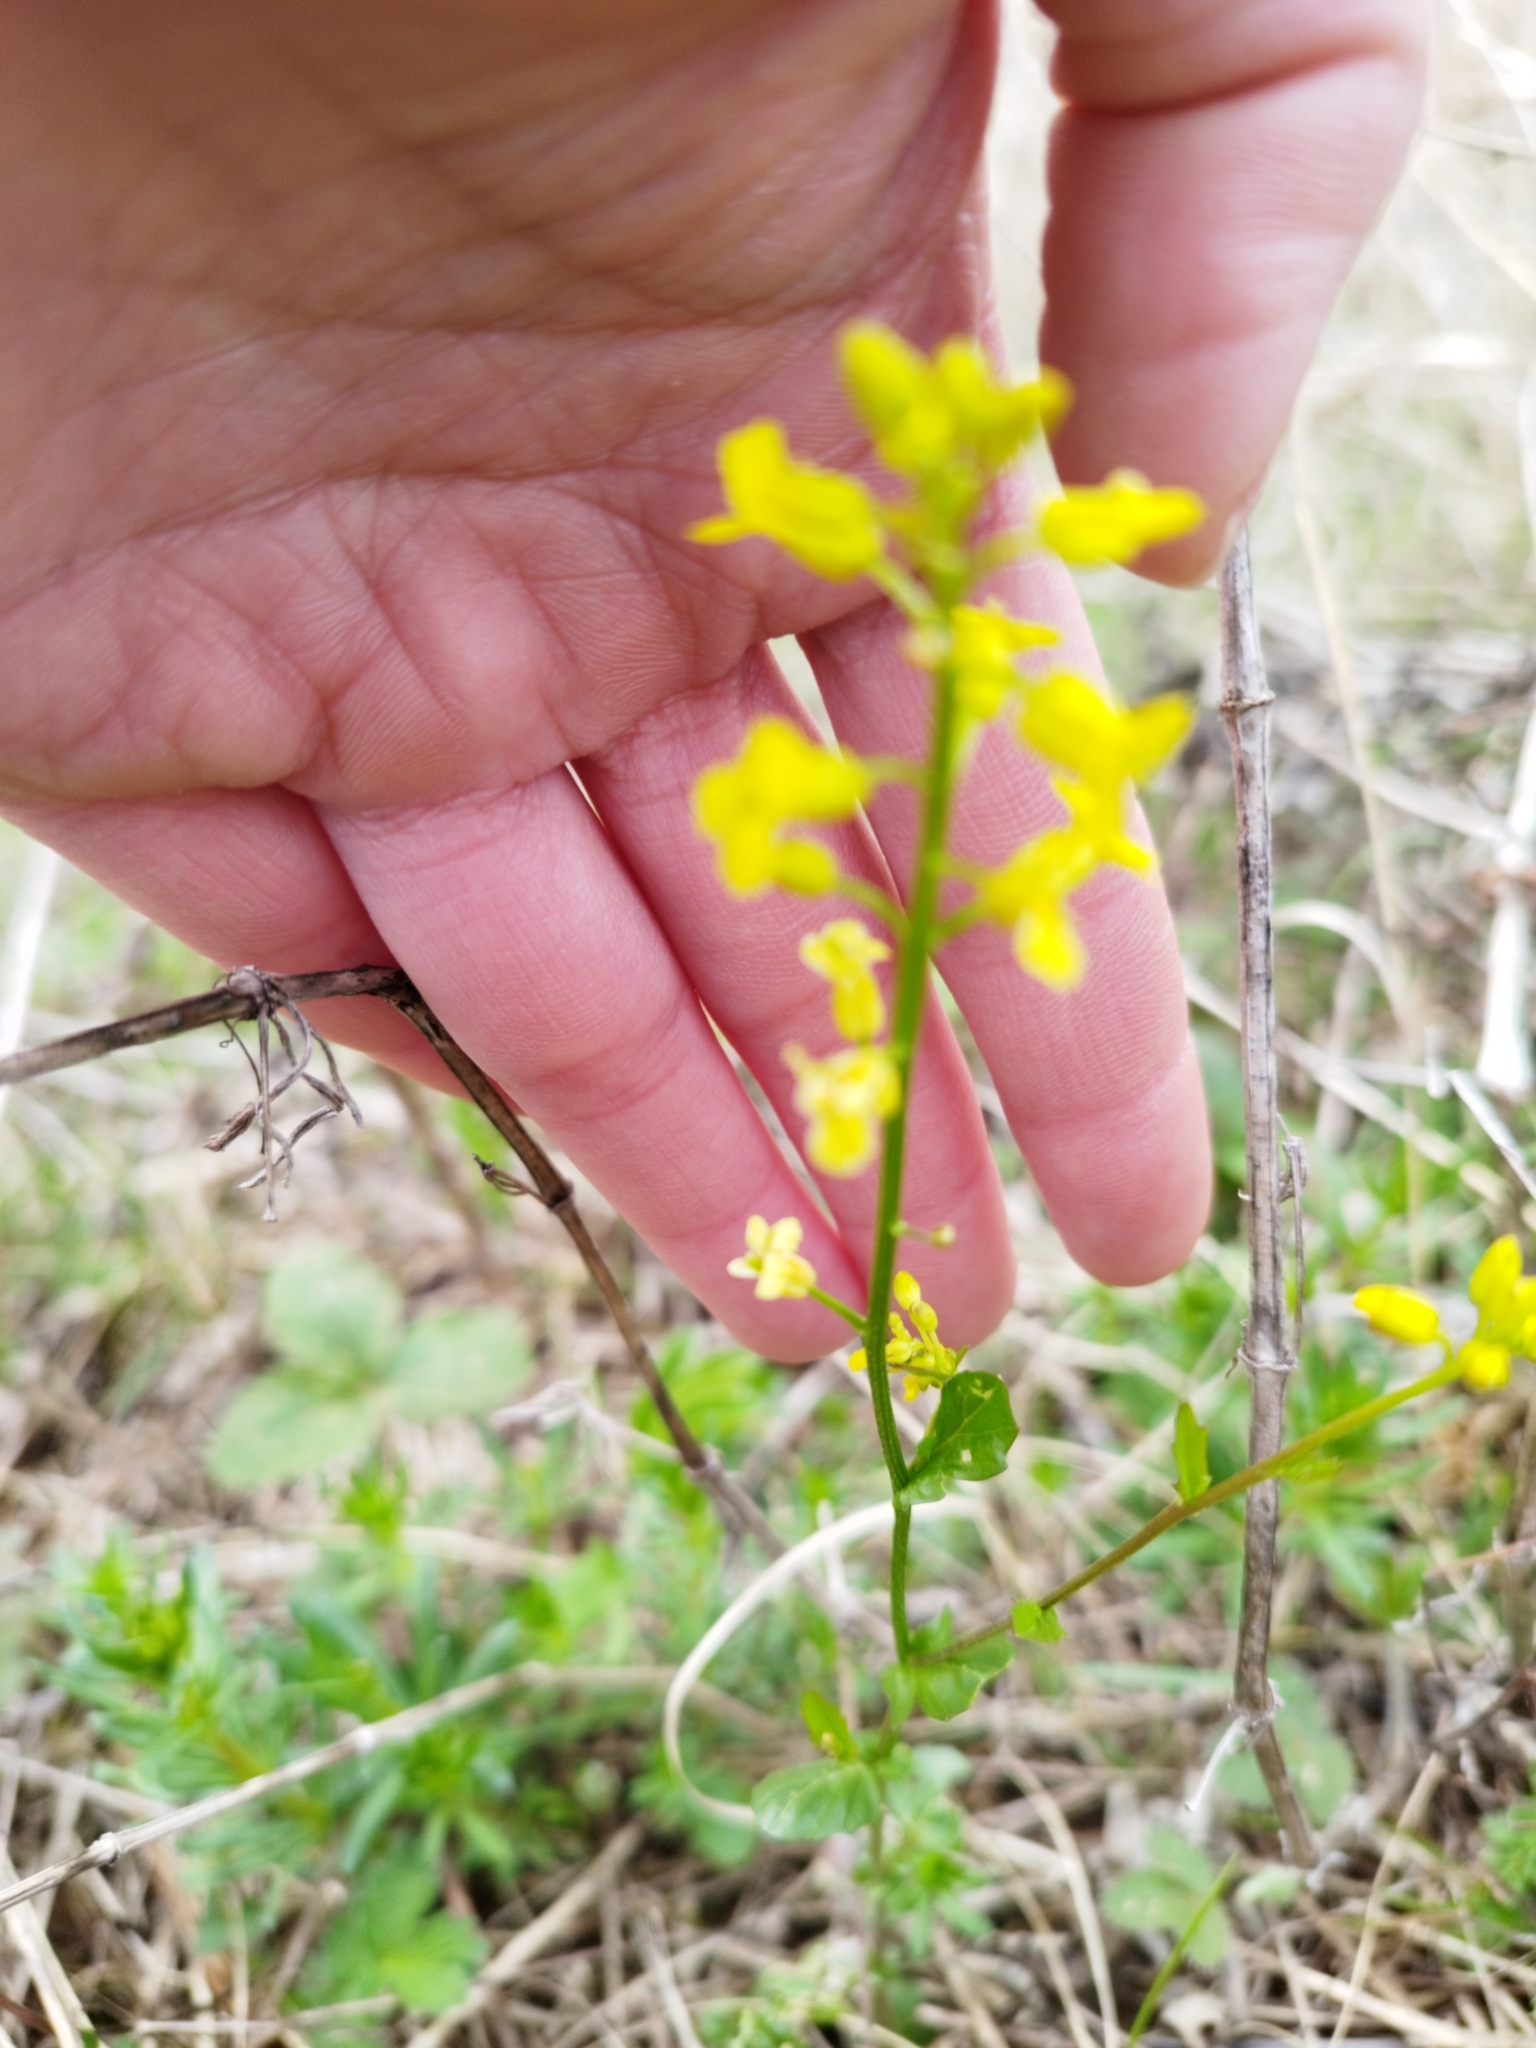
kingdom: Plantae
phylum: Tracheophyta
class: Magnoliopsida
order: Brassicales
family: Brassicaceae
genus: Barbarea
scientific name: Barbarea vulgaris
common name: Cressy-greens
